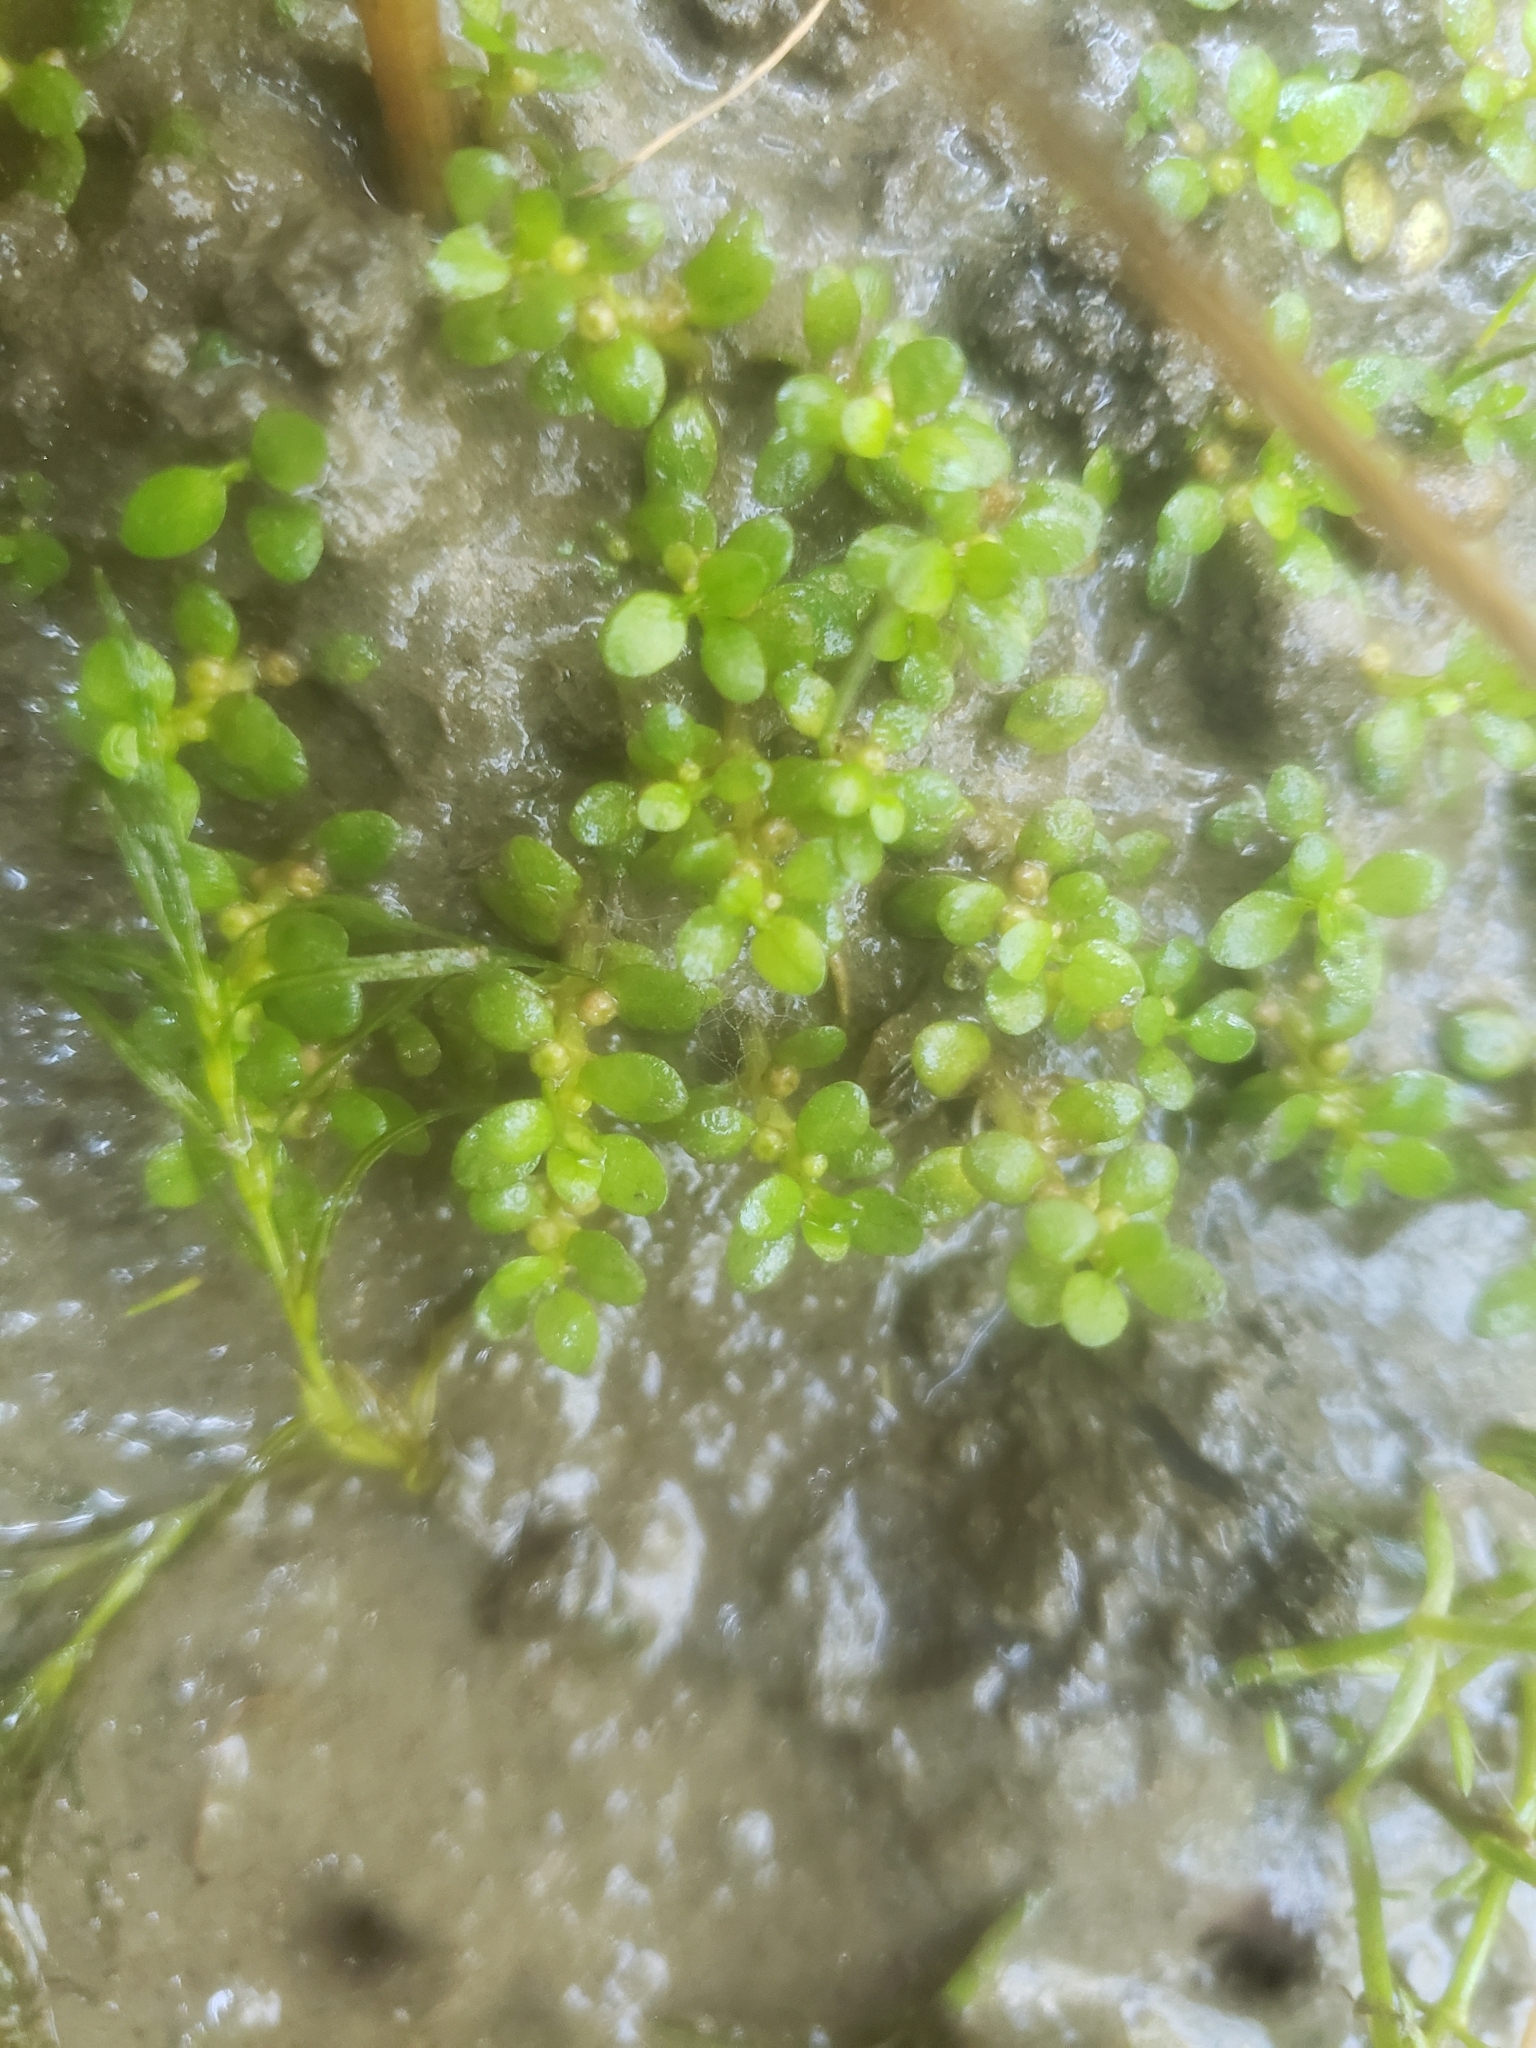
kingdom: Plantae
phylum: Tracheophyta
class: Magnoliopsida
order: Malpighiales
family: Elatinaceae
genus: Elatine
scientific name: Elatine americana
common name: American waterwort
